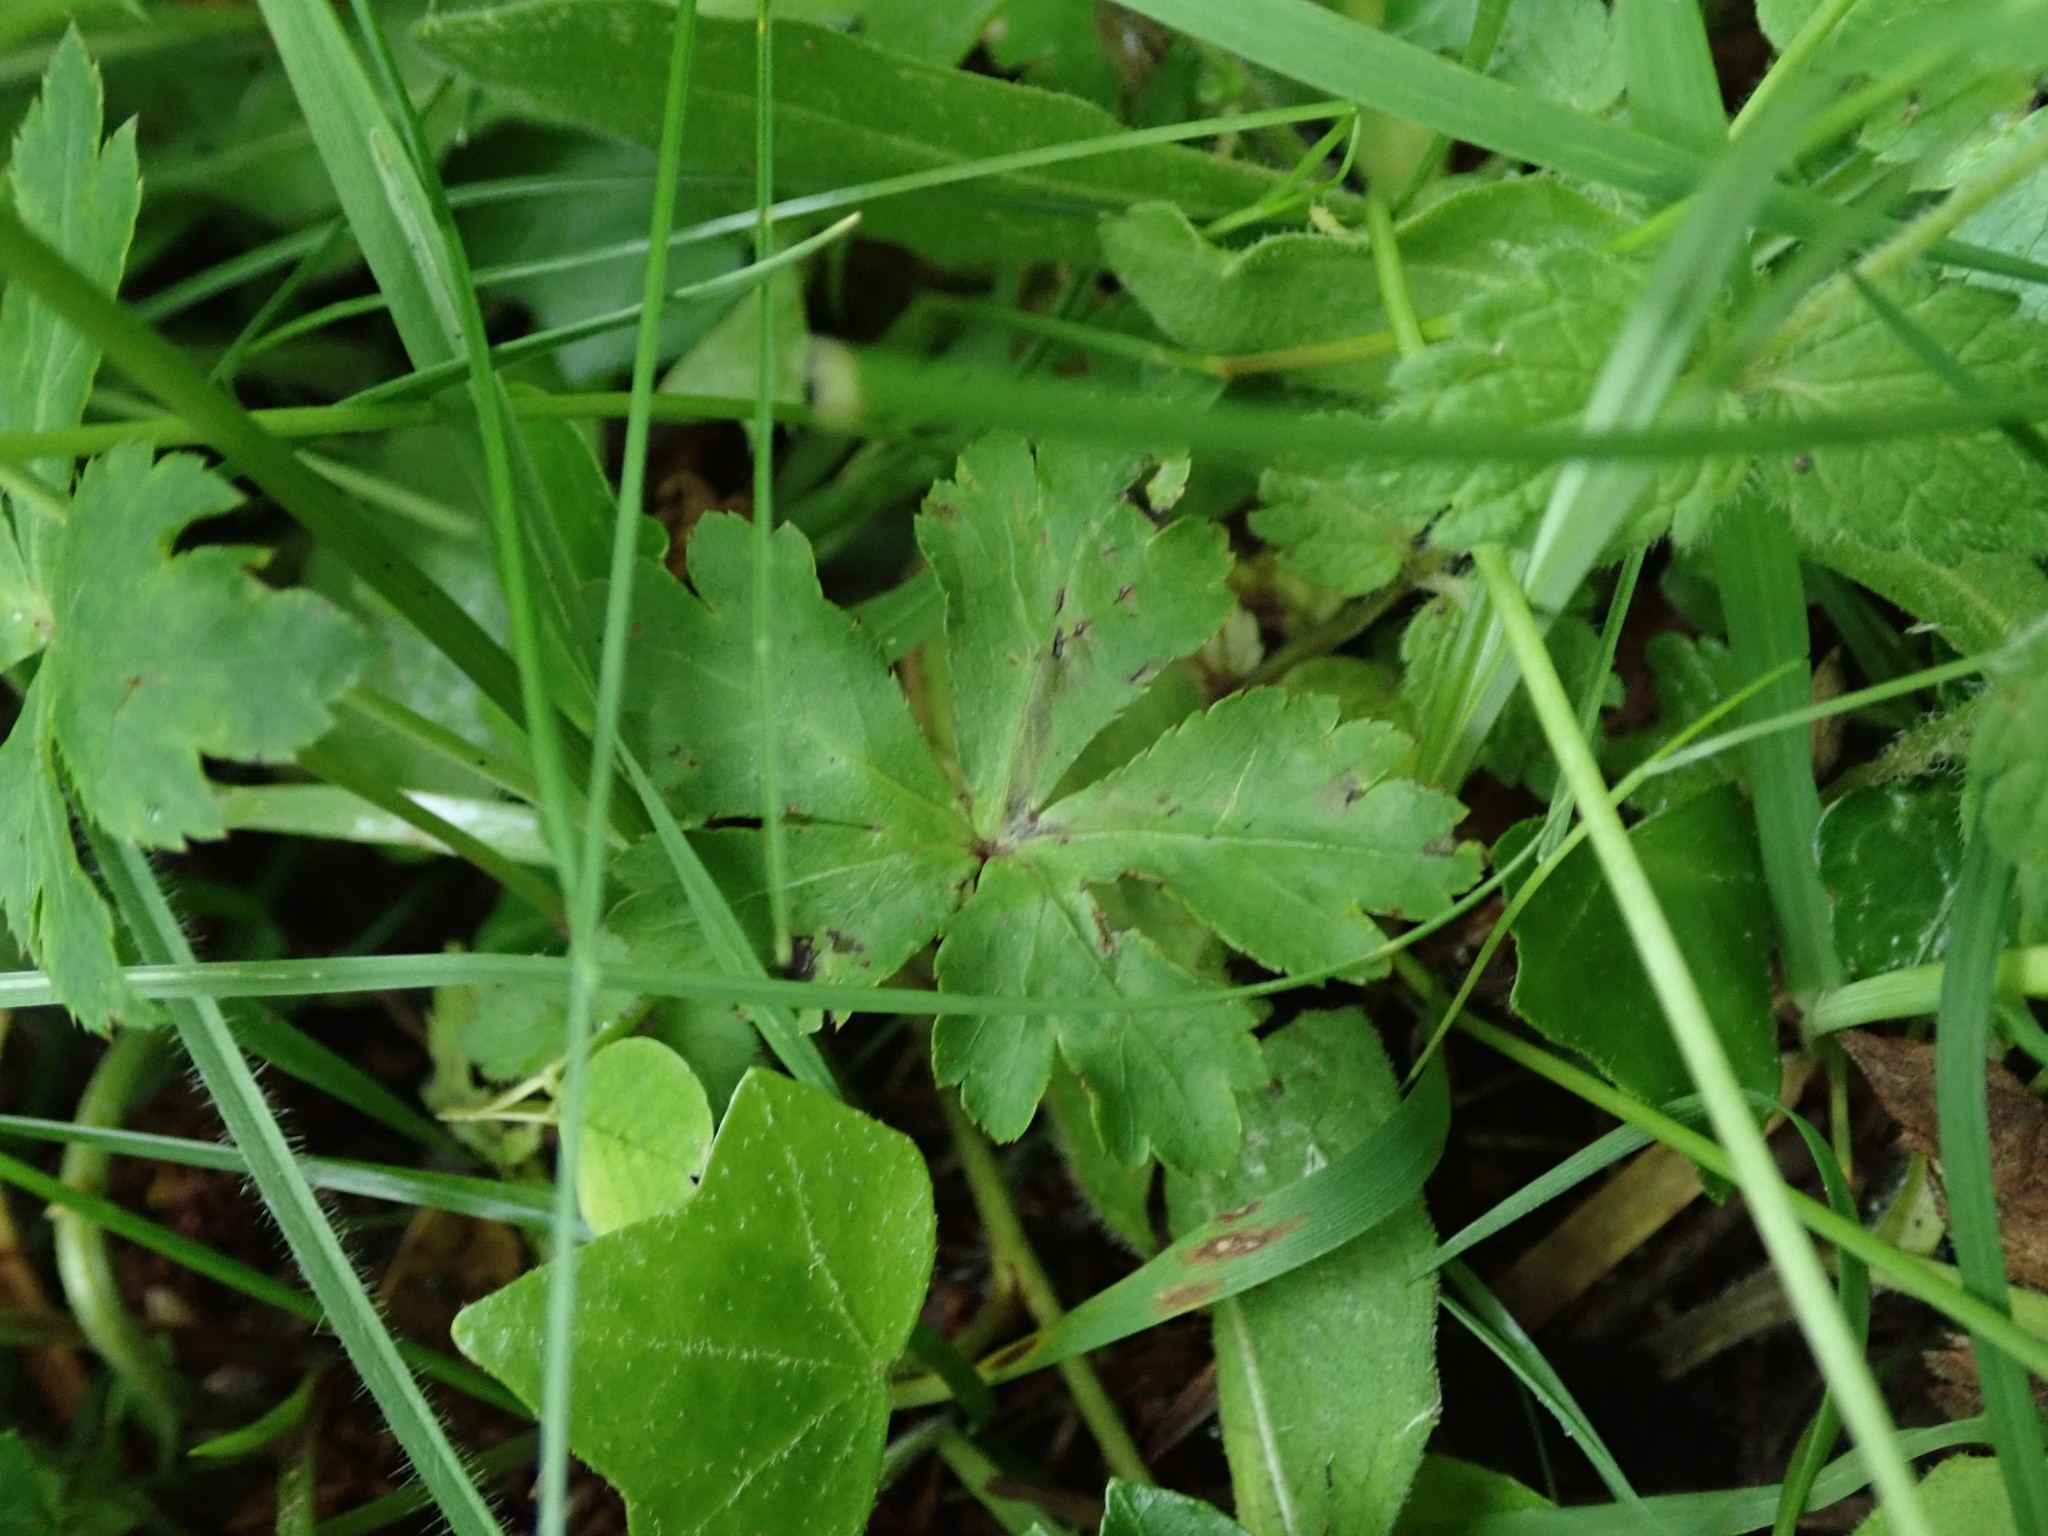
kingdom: Plantae
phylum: Tracheophyta
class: Magnoliopsida
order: Apiales
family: Apiaceae
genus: Sanicula
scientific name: Sanicula europaea
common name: Sanicle
